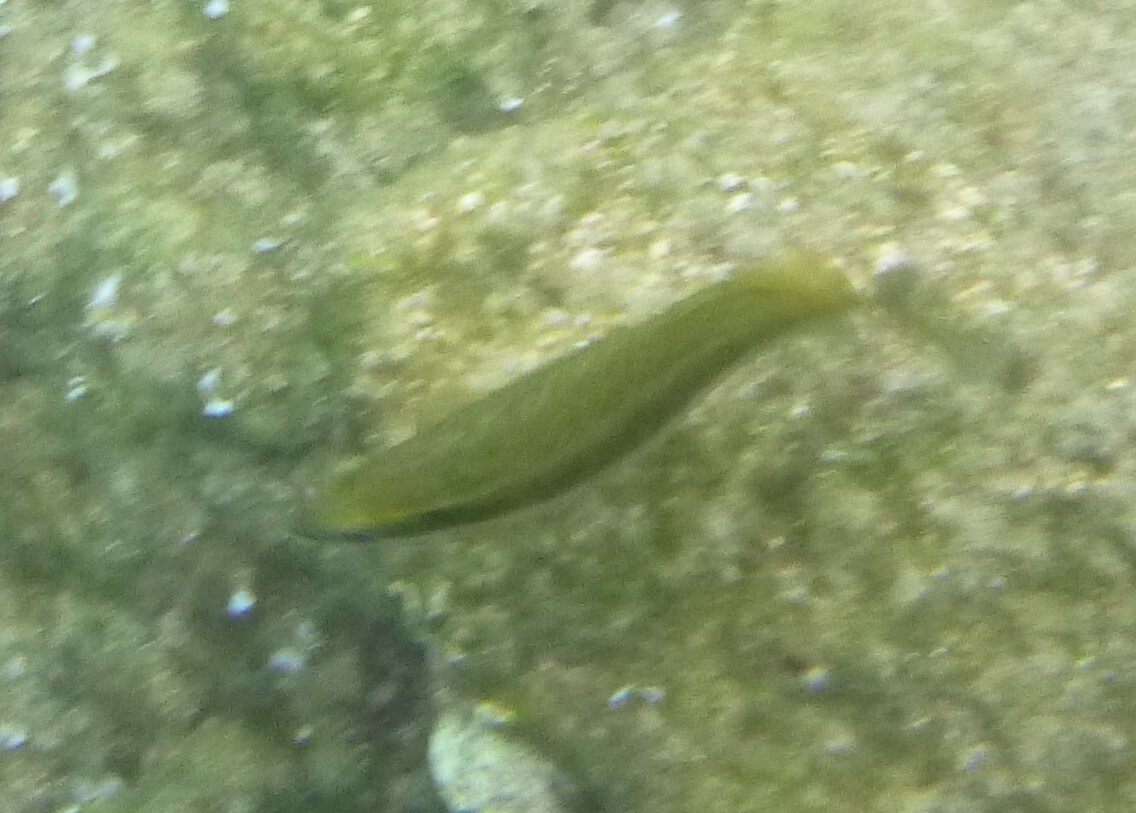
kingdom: Animalia
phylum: Chordata
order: Perciformes
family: Siganidae
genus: Siganus
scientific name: Siganus luridus
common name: Dusky spinefoot
